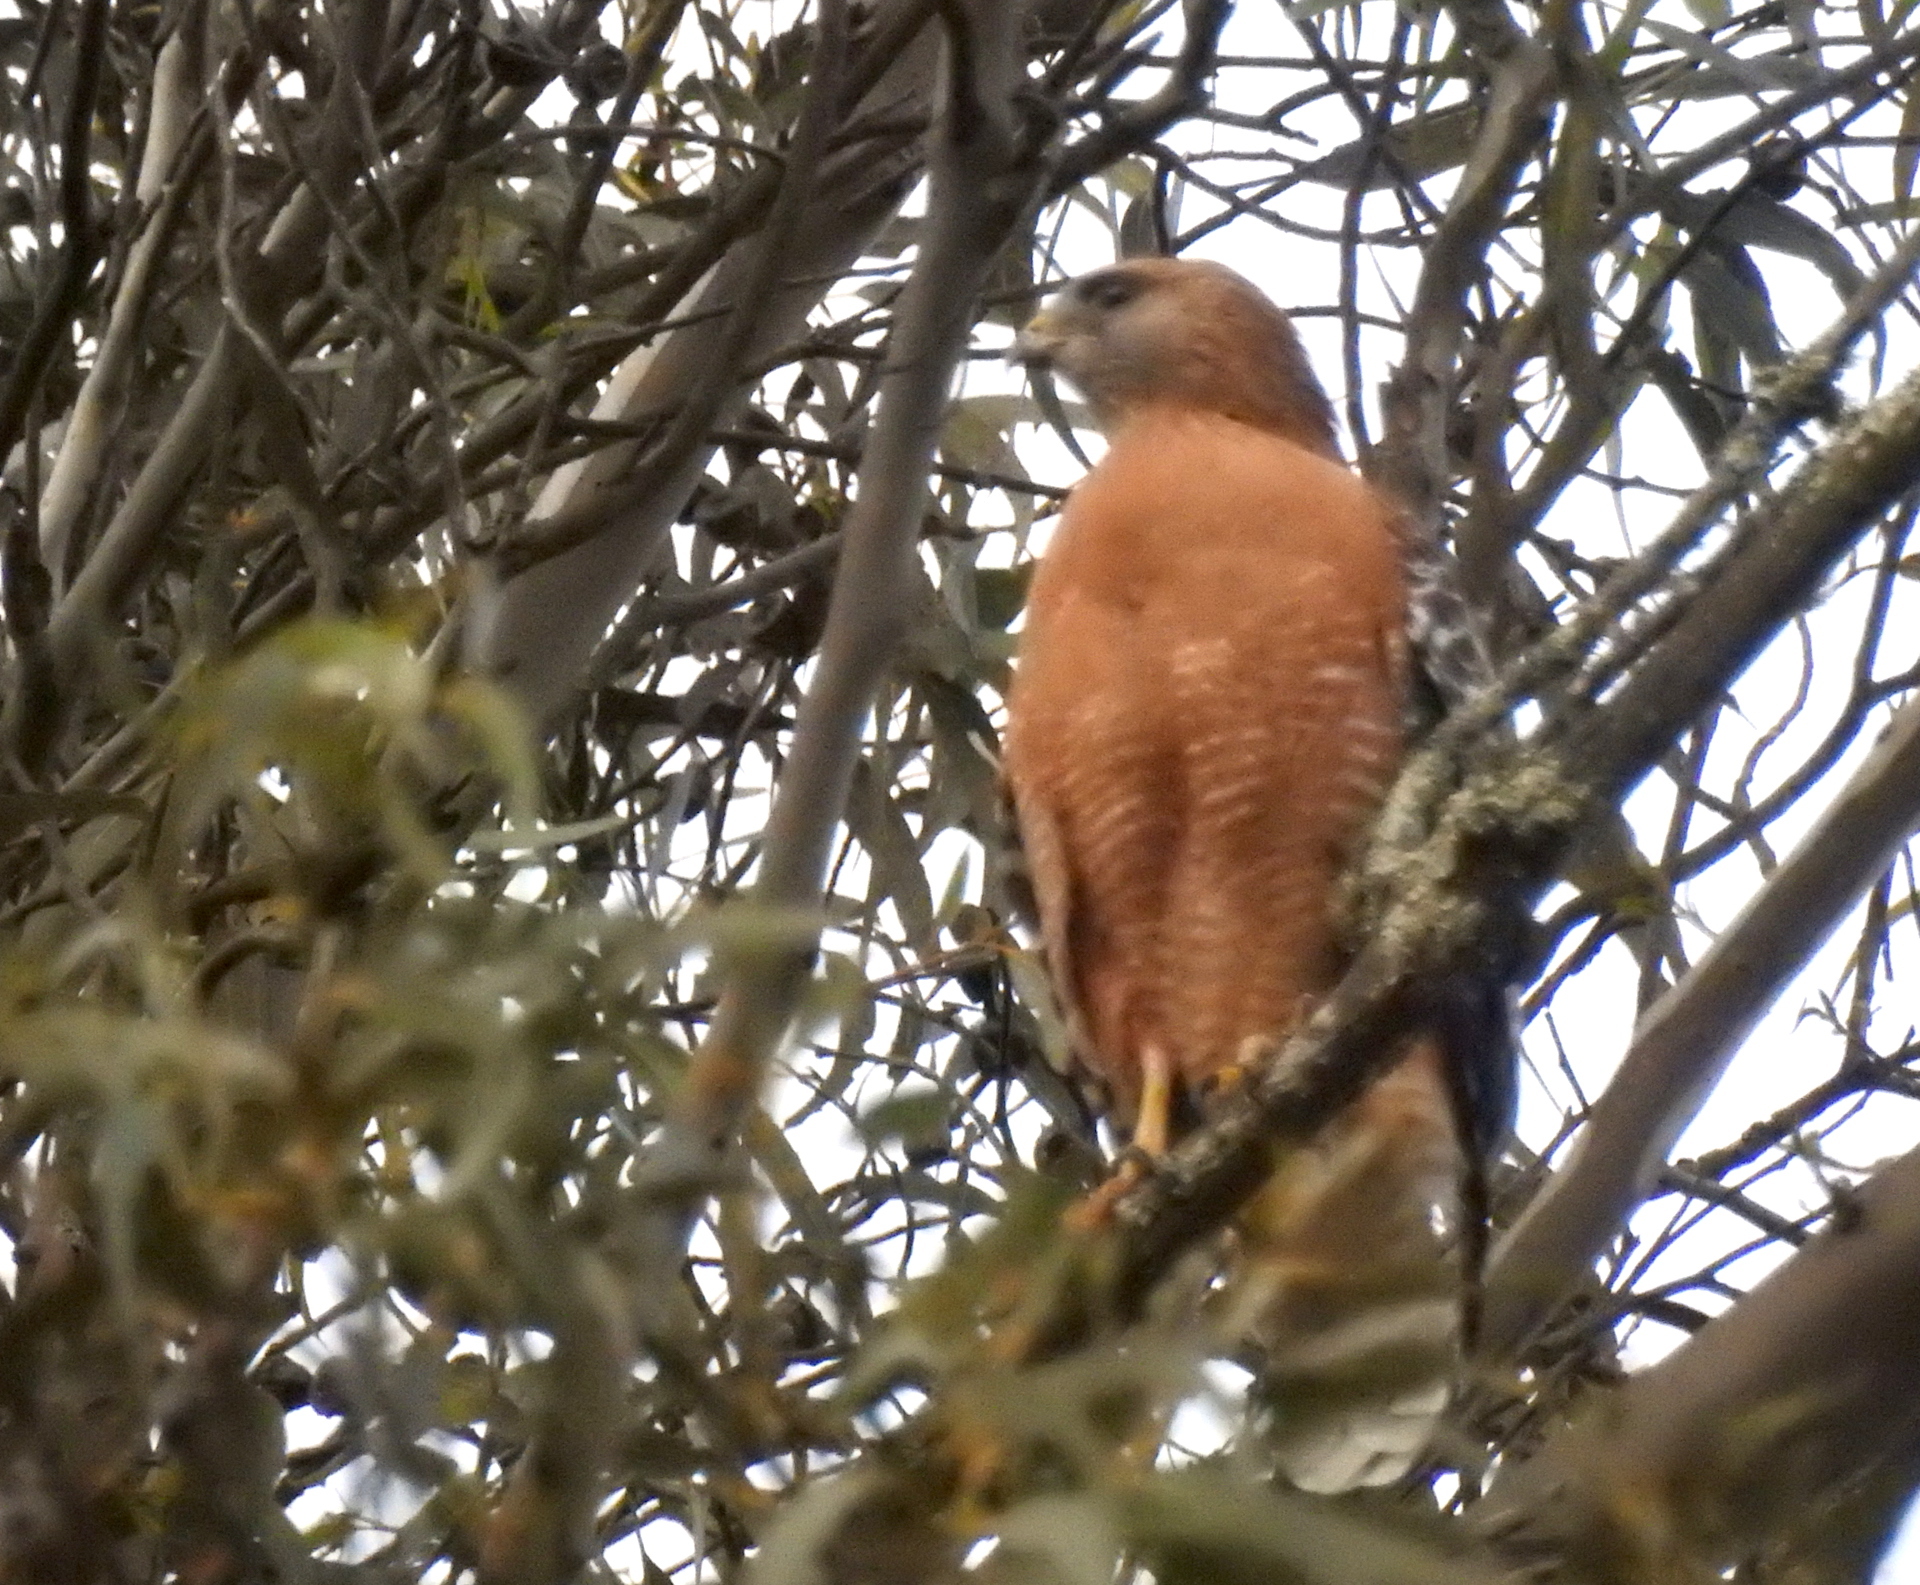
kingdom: Animalia
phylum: Chordata
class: Aves
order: Accipitriformes
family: Accipitridae
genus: Buteo
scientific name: Buteo lineatus
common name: Red-shouldered hawk
